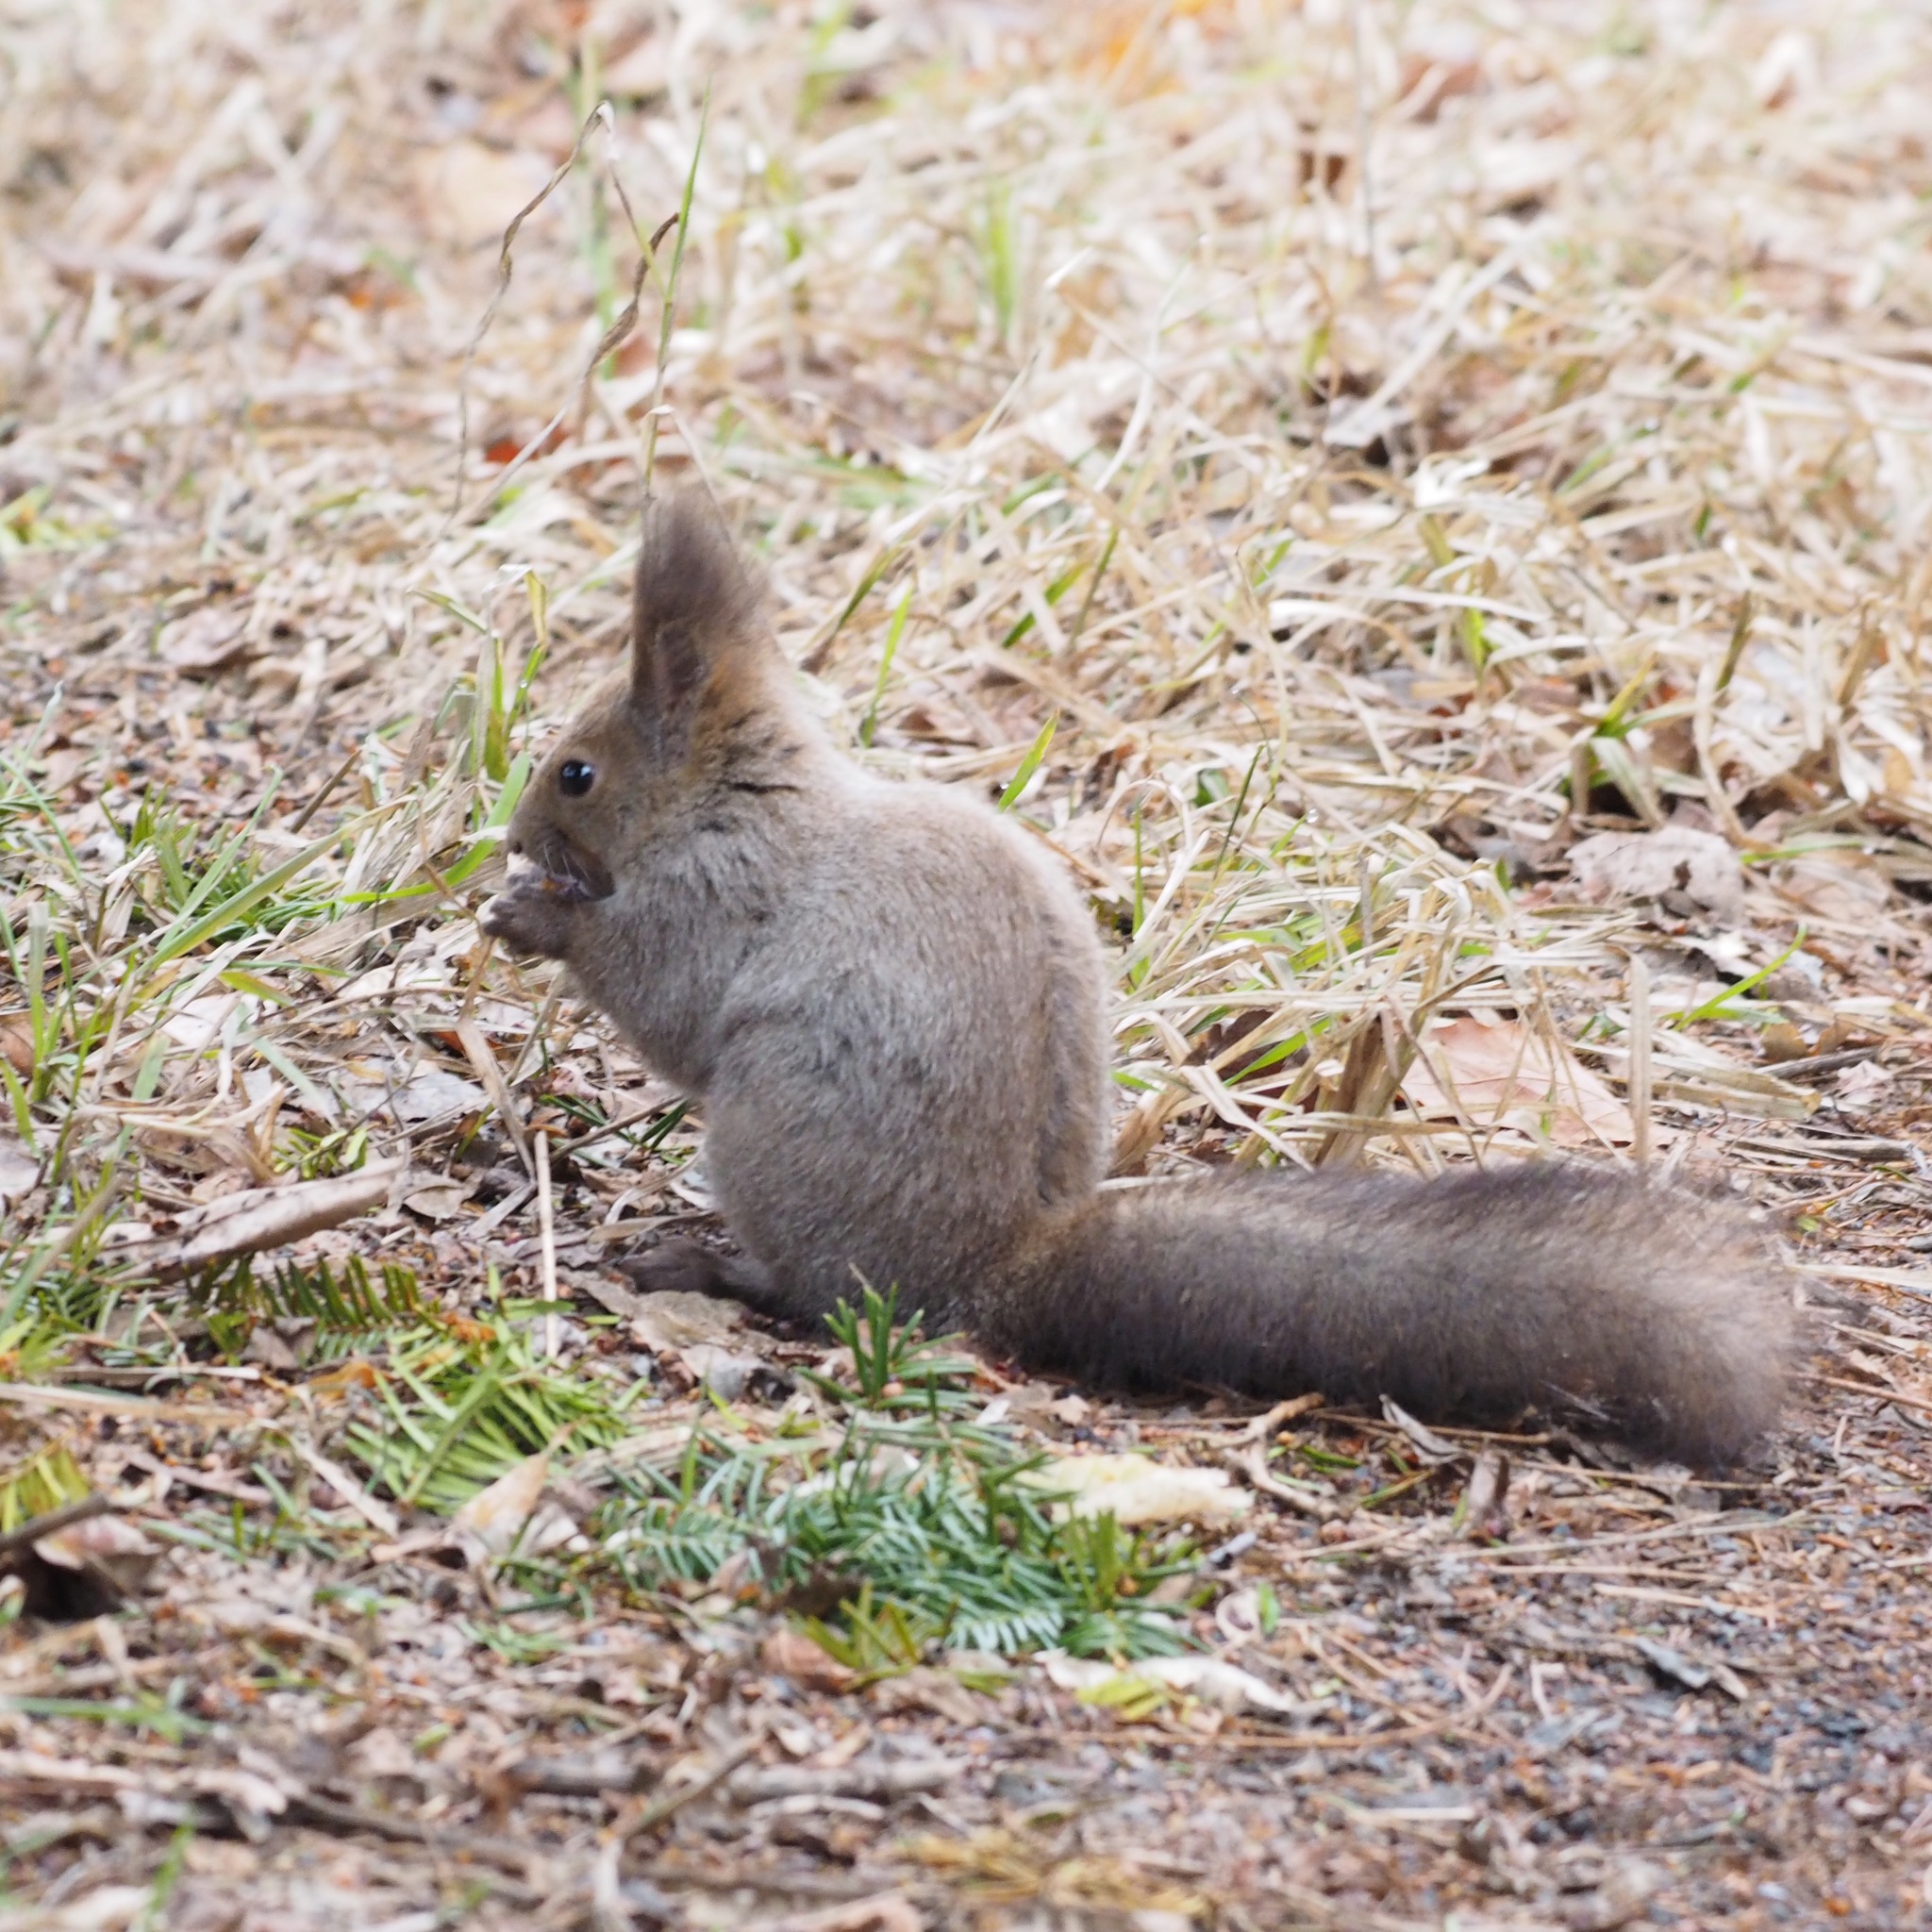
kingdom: Animalia
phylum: Chordata
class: Mammalia
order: Rodentia
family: Sciuridae
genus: Sciurus
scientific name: Sciurus vulgaris
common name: Eurasian red squirrel
